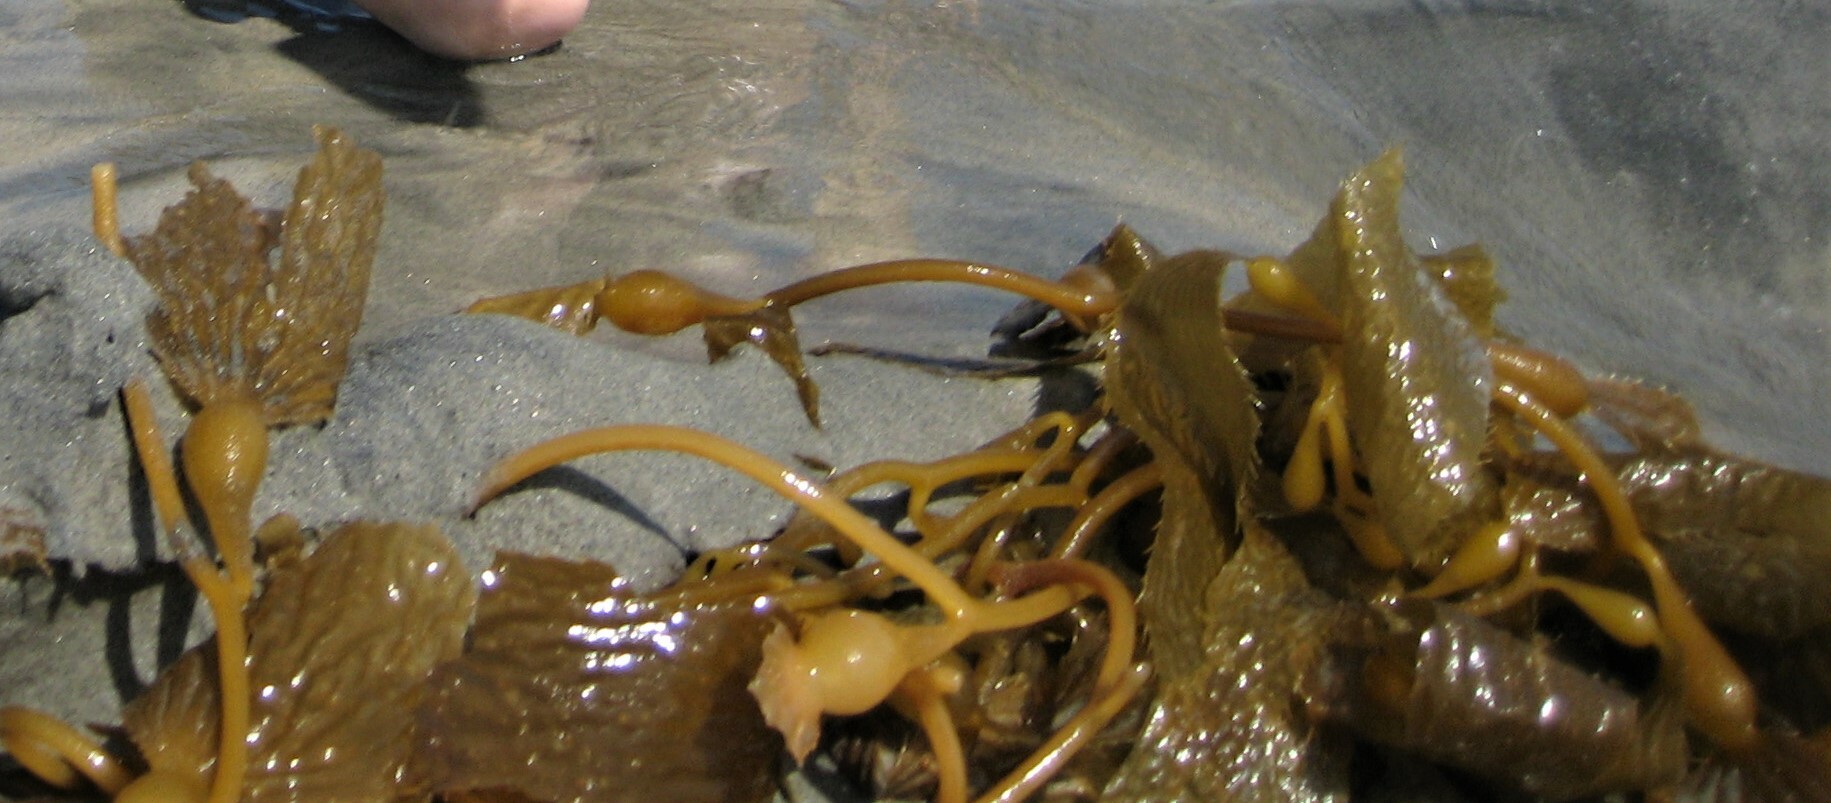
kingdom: Chromista
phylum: Ochrophyta
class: Phaeophyceae
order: Laminariales
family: Laminariaceae
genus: Macrocystis
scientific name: Macrocystis pyrifera
